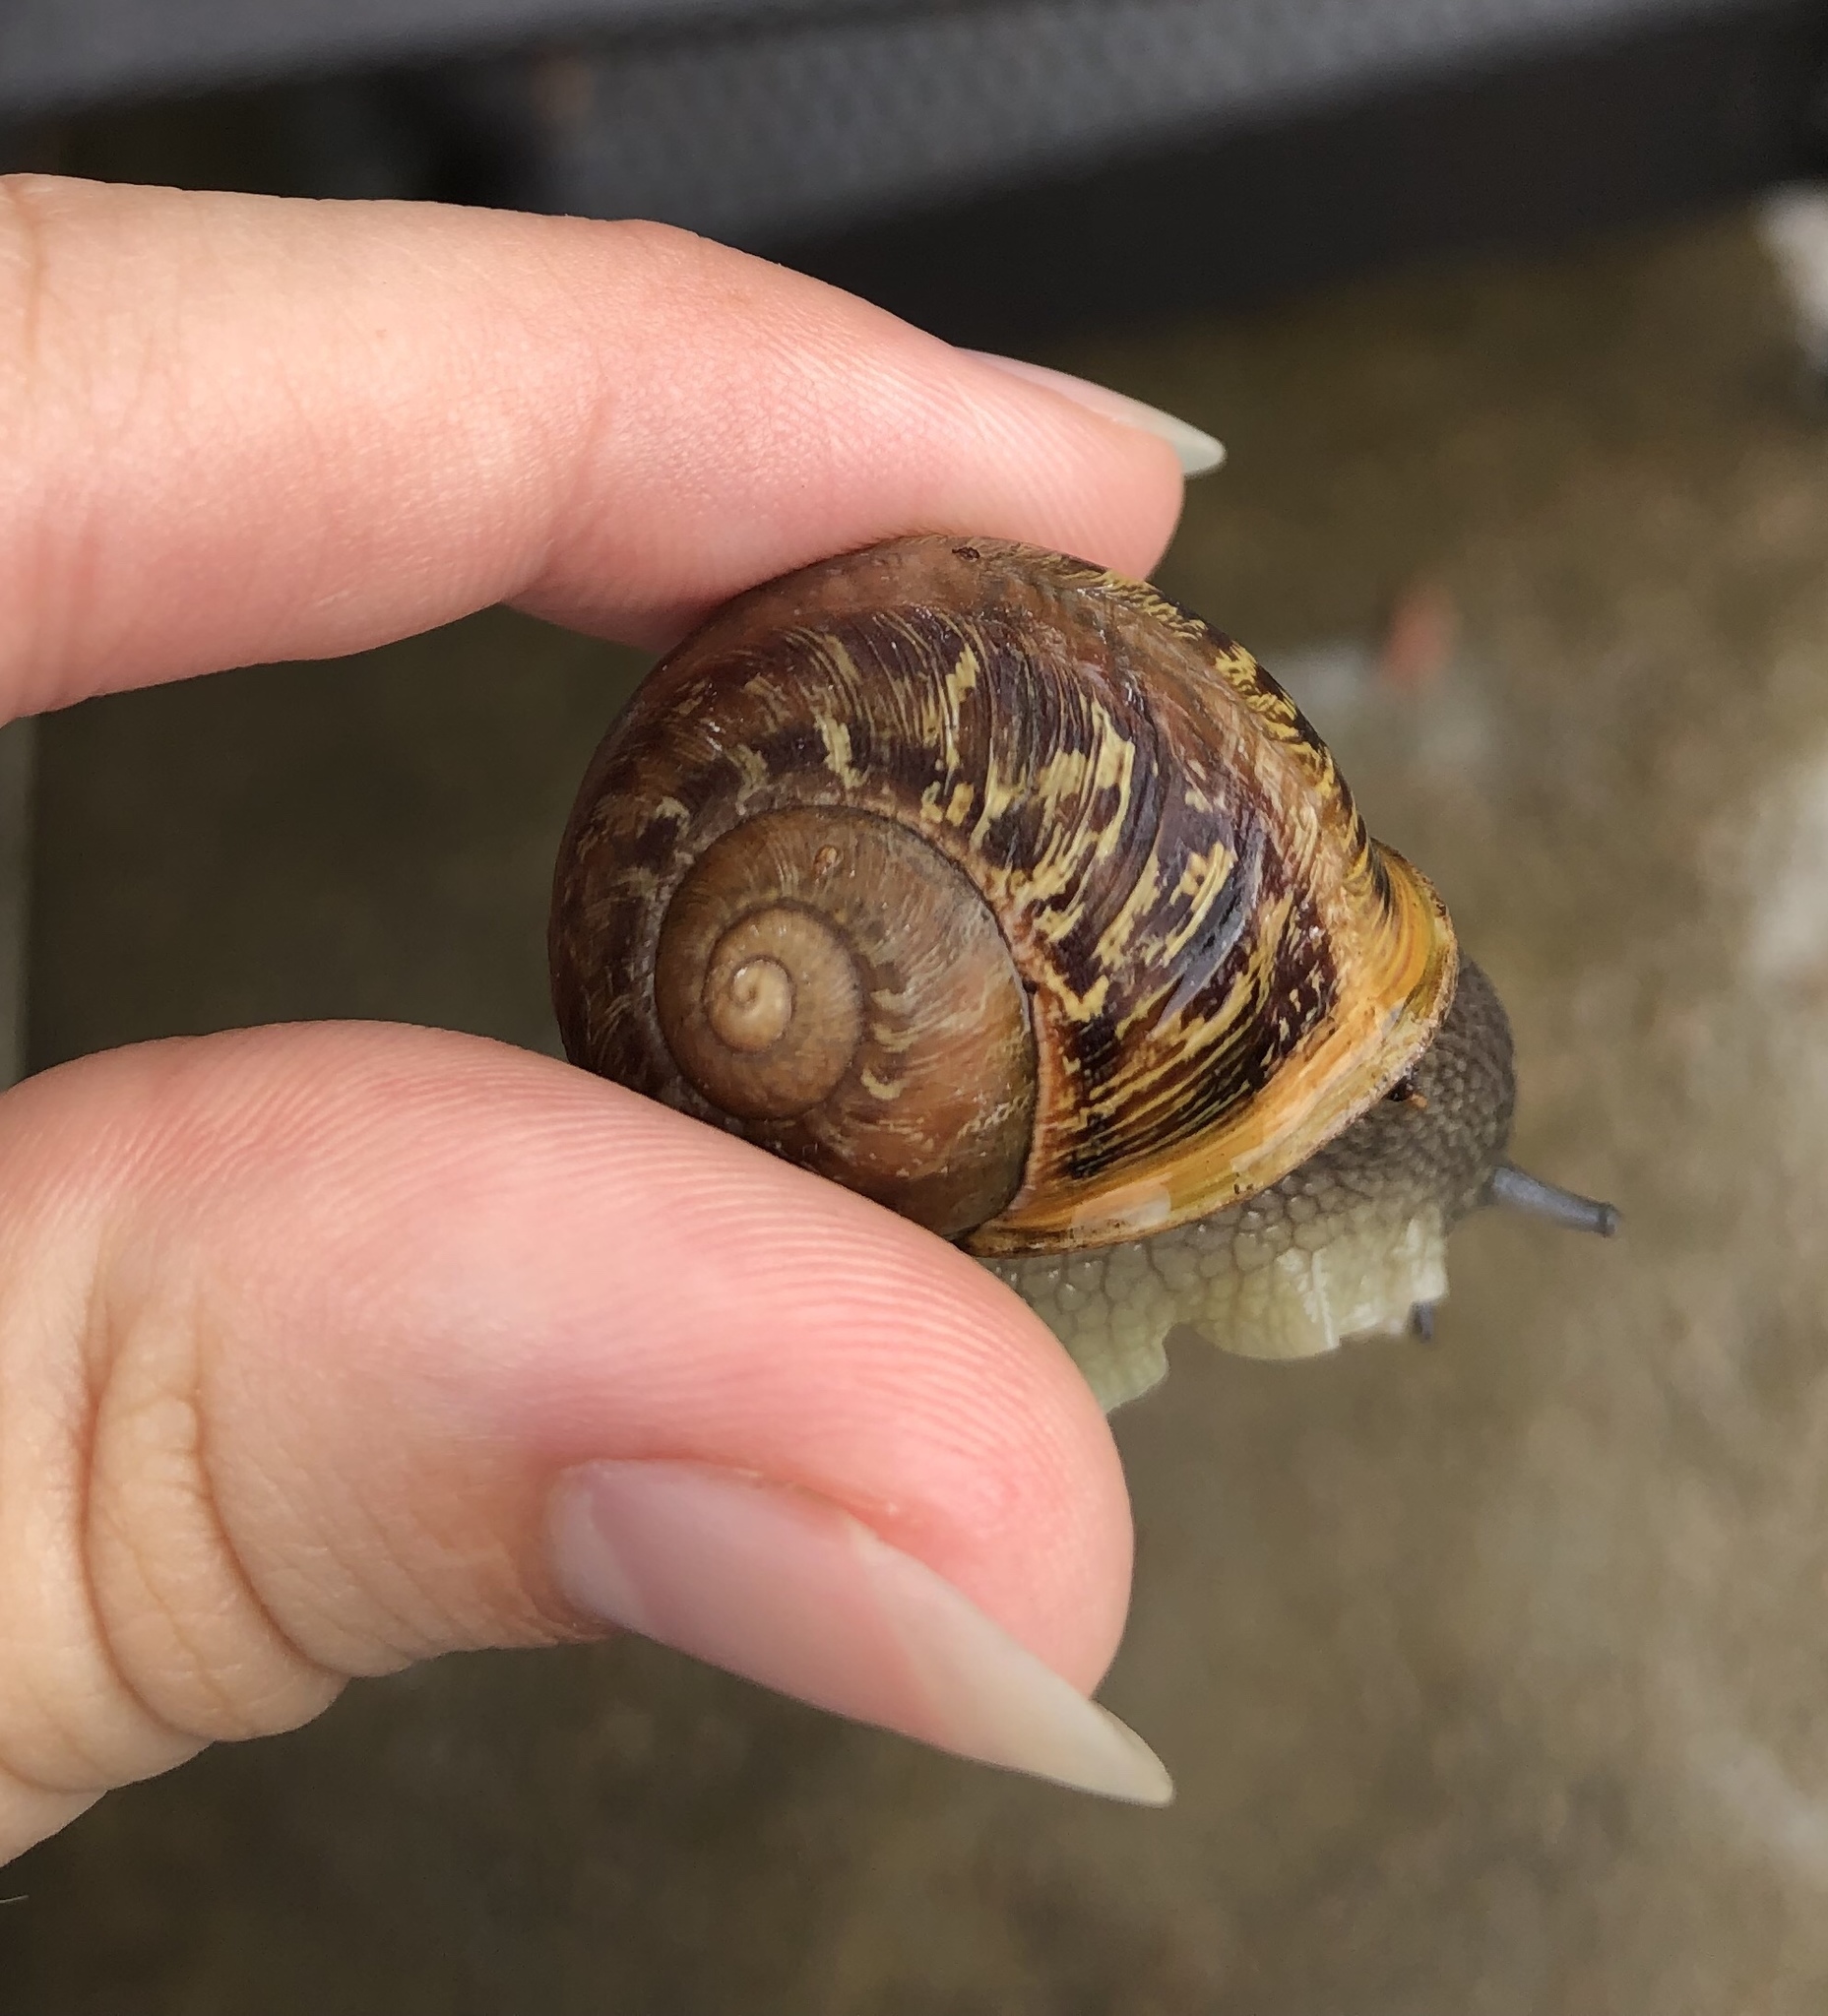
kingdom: Animalia
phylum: Mollusca
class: Gastropoda
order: Stylommatophora
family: Helicidae
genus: Cornu
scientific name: Cornu aspersum
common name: Brown garden snail
